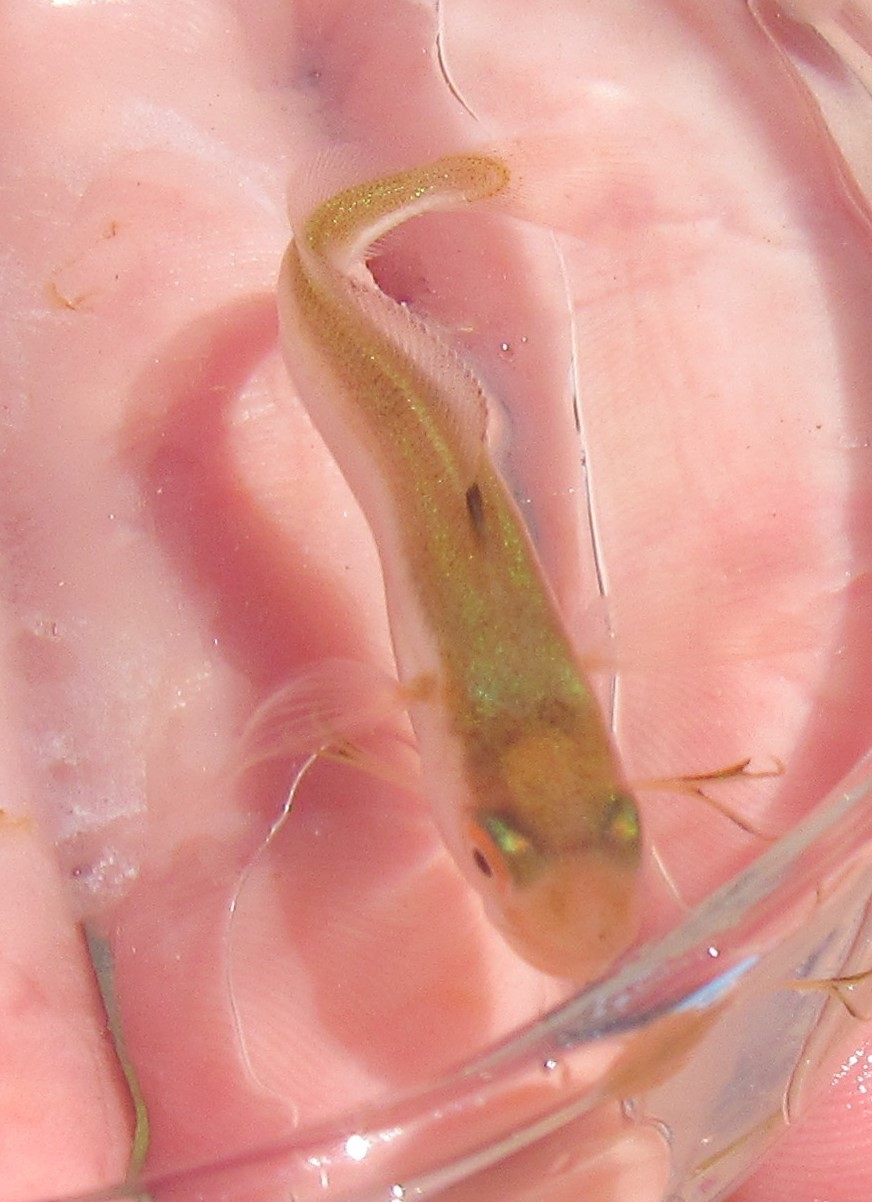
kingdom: Animalia
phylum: Chordata
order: Gadiformes
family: Phycidae
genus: Urophycis
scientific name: Urophycis tenuis
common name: White hake
